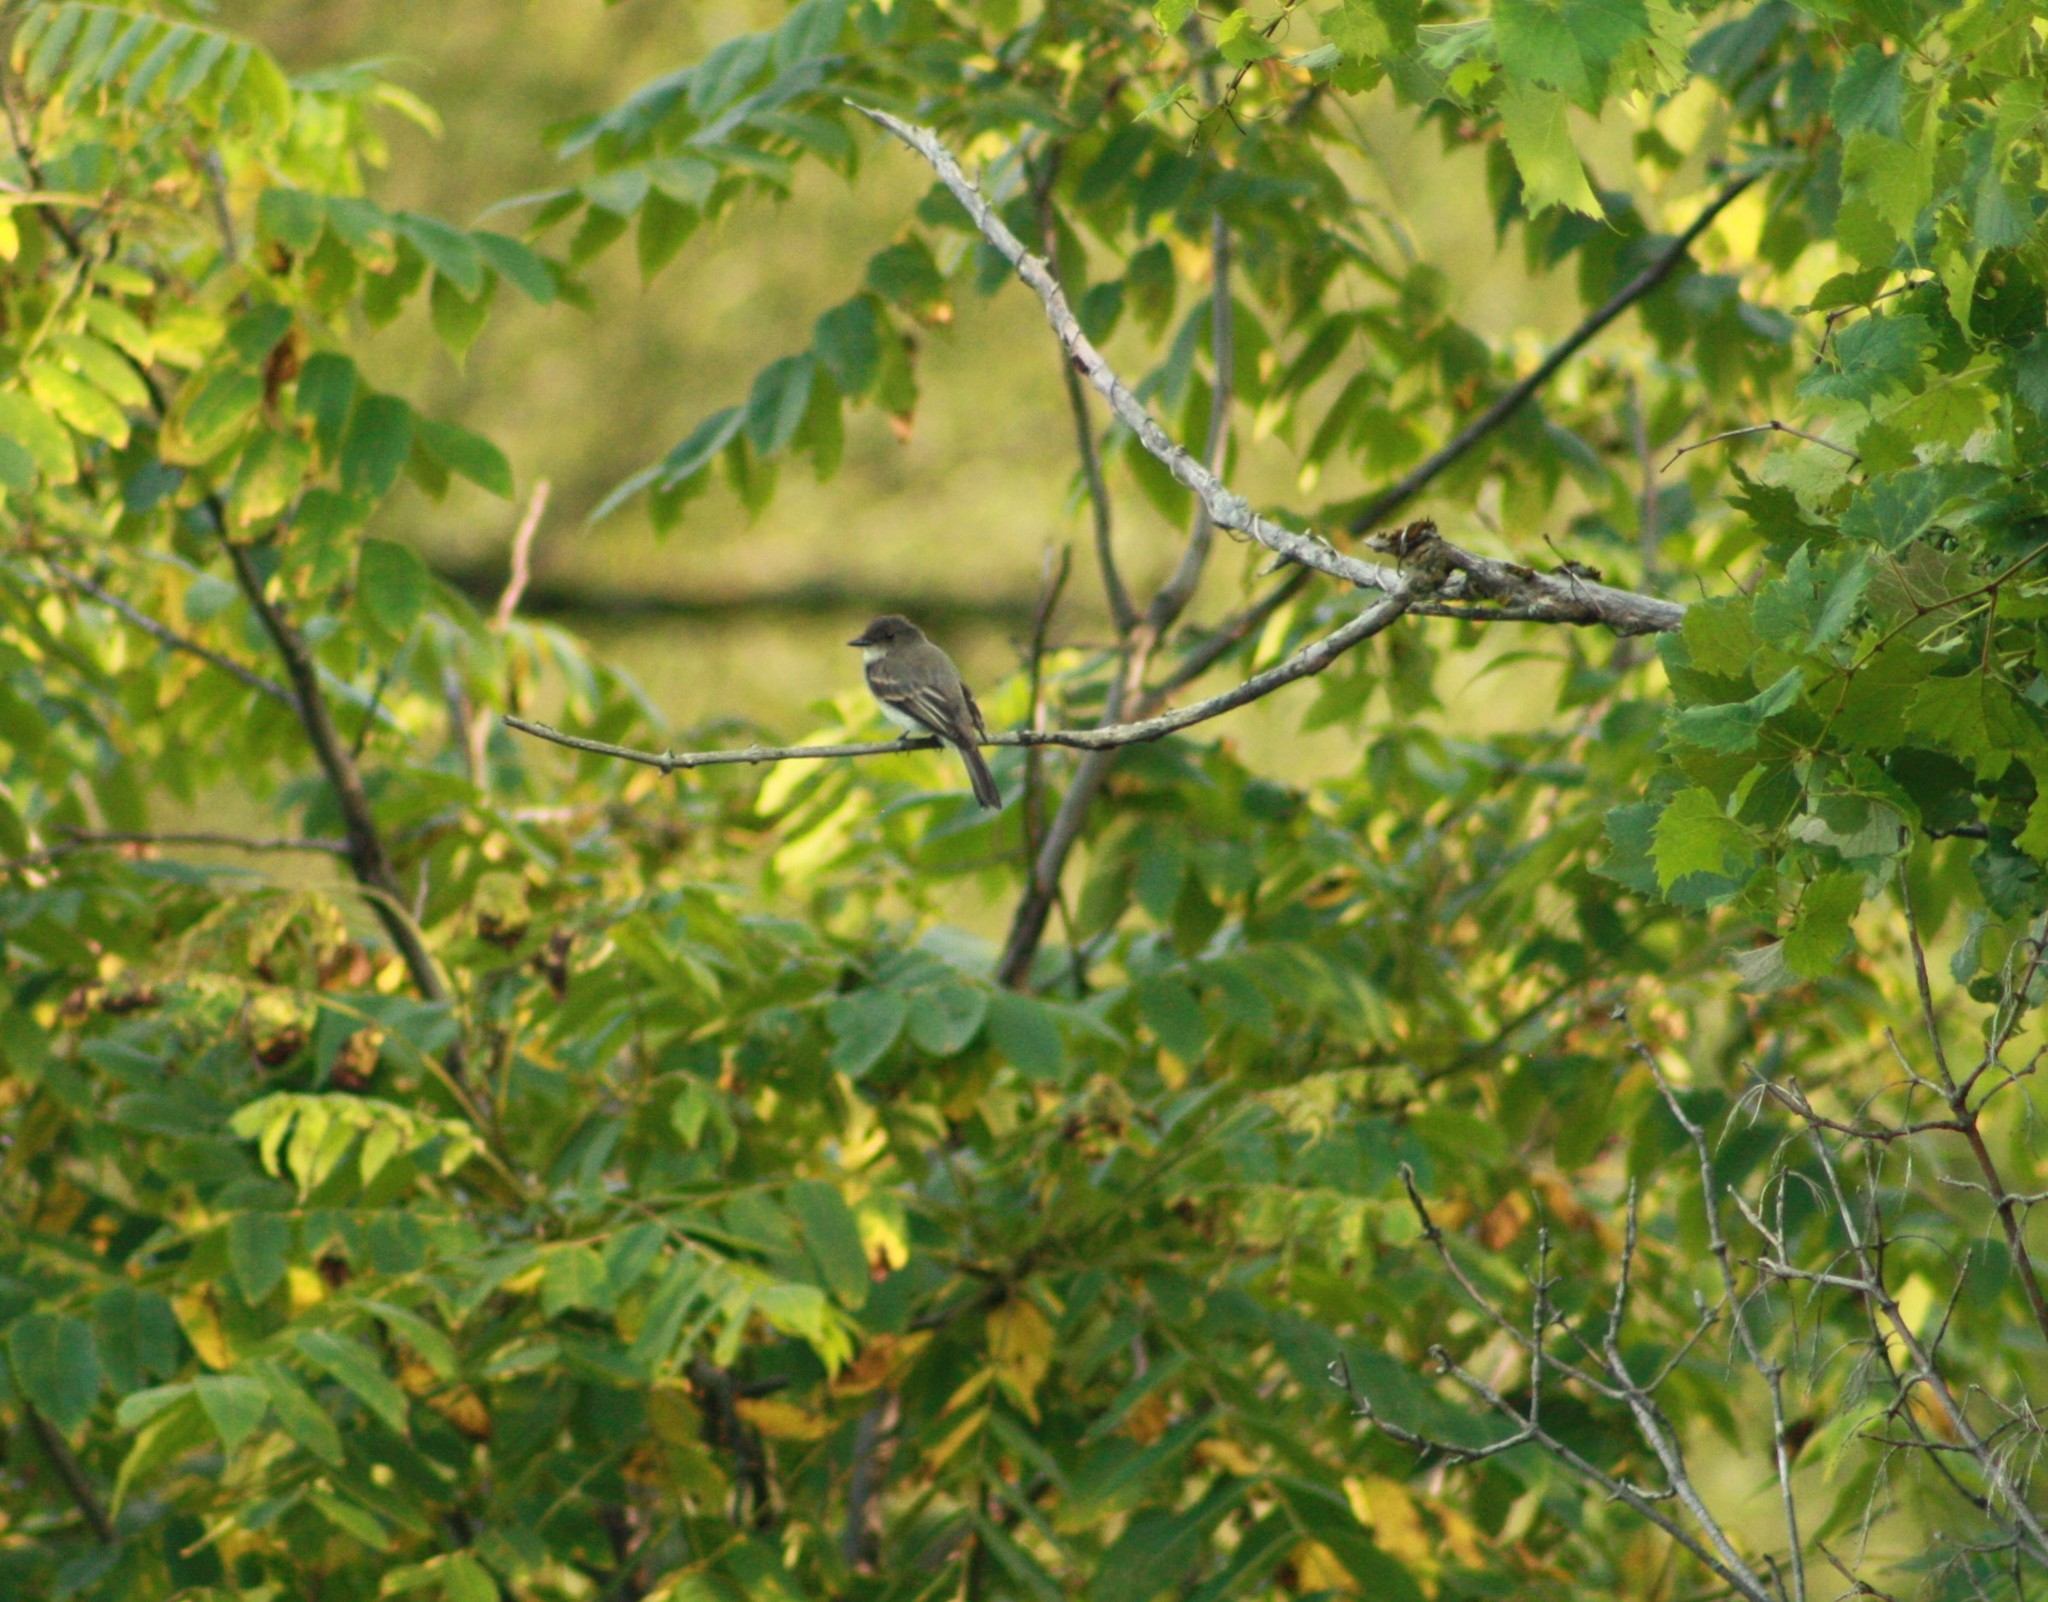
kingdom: Animalia
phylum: Chordata
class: Aves
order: Passeriformes
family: Tyrannidae
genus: Sayornis
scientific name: Sayornis phoebe
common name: Eastern phoebe
